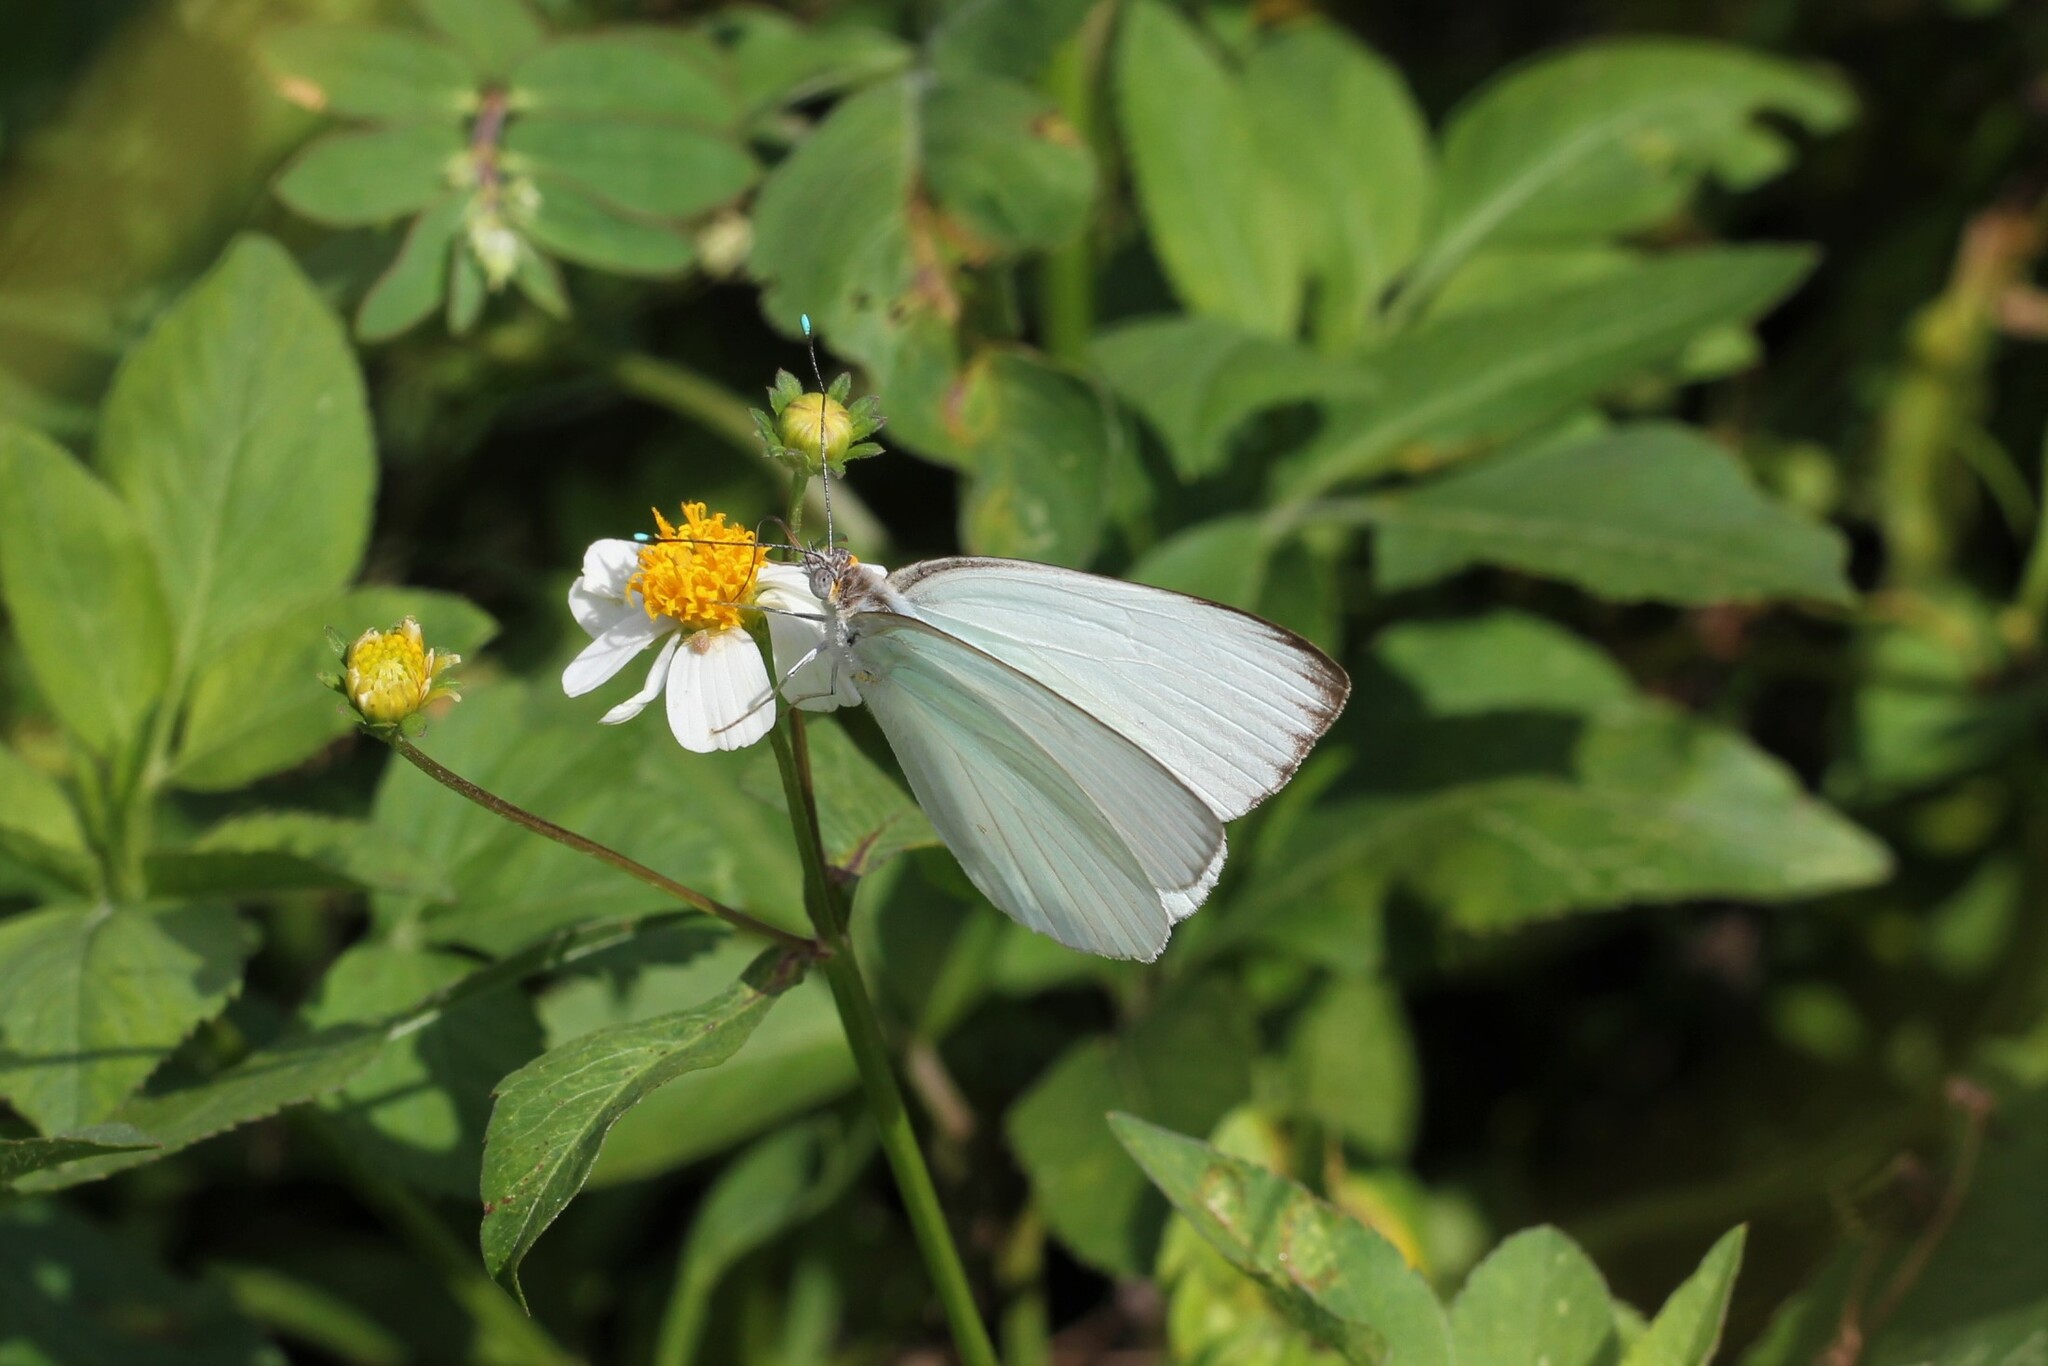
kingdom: Animalia
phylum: Arthropoda
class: Insecta
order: Lepidoptera
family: Pieridae
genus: Ascia
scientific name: Ascia monuste
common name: Great southern white
